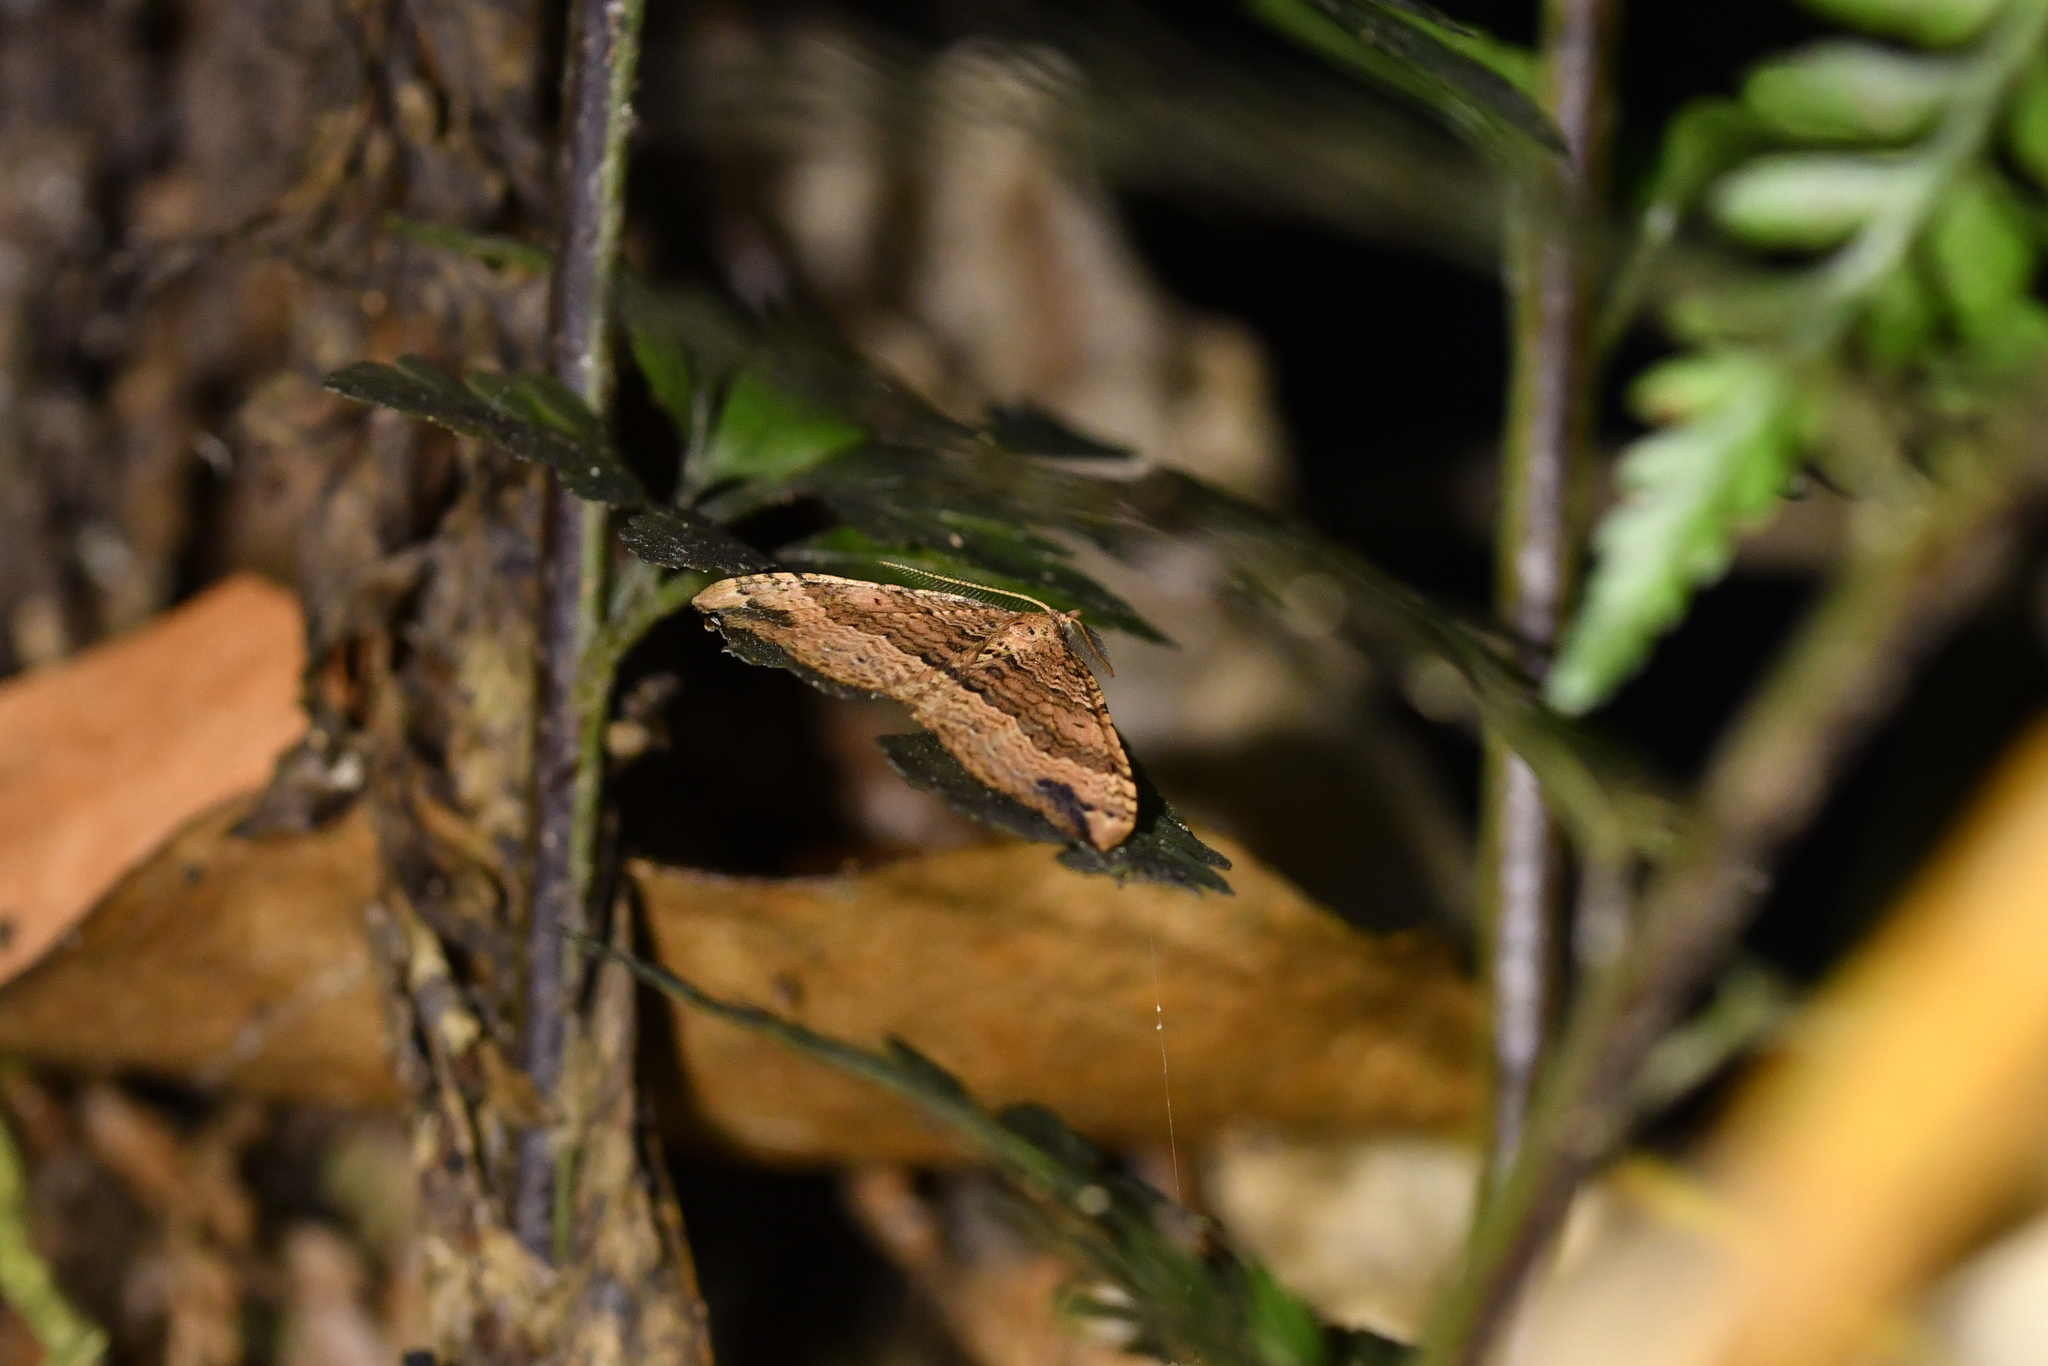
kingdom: Animalia
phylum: Arthropoda
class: Insecta
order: Lepidoptera
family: Geometridae
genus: Homodotis
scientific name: Homodotis megaspilata
